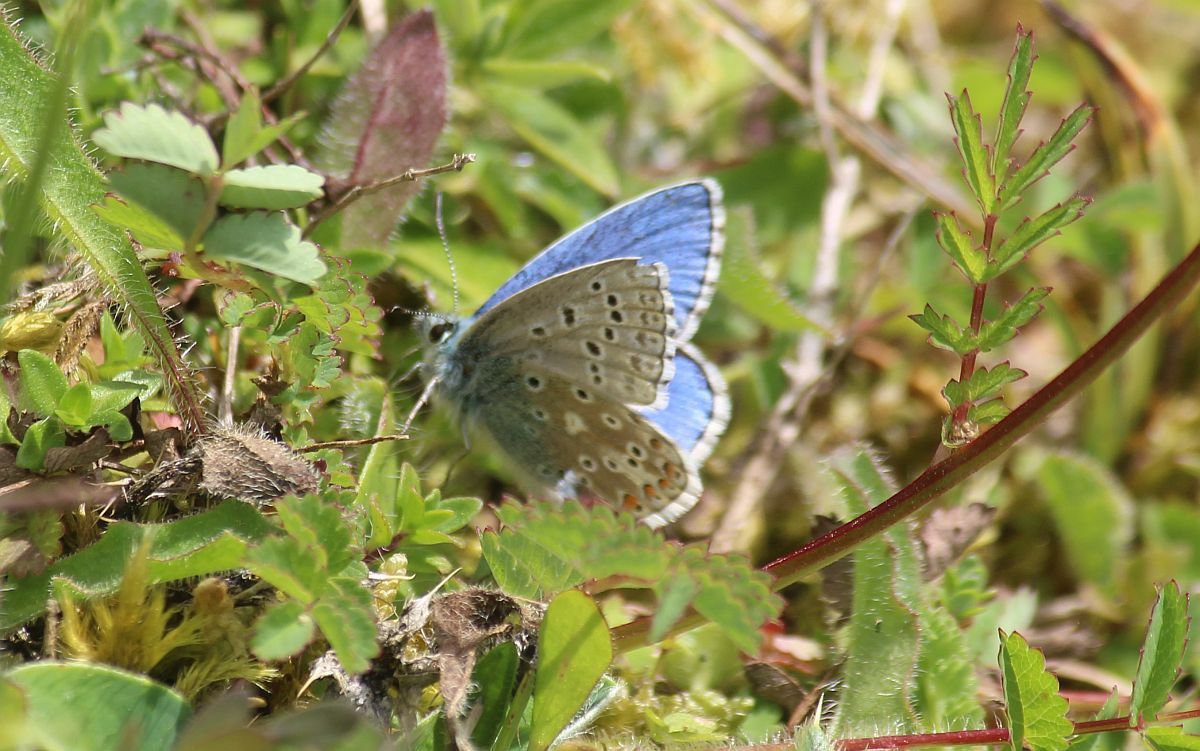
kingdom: Animalia
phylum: Arthropoda
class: Insecta
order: Lepidoptera
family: Lycaenidae
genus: Lysandra
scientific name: Lysandra bellargus
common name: Adonis blue
